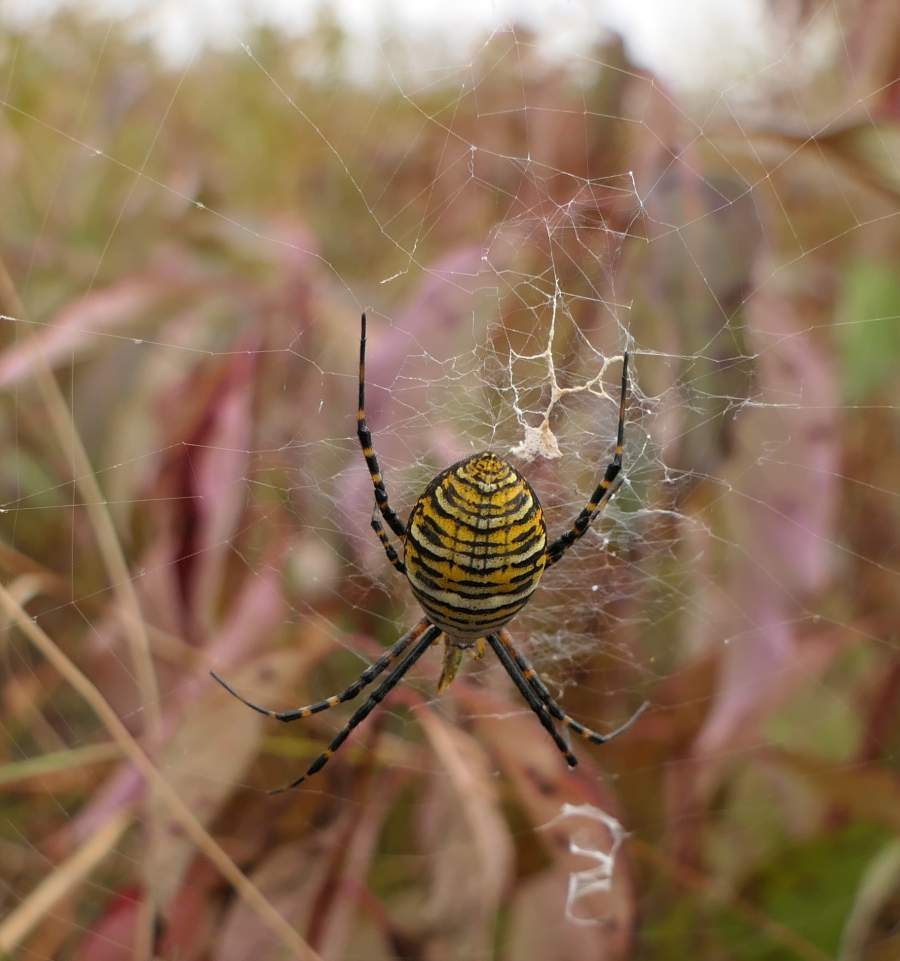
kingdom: Animalia
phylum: Arthropoda
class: Arachnida
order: Araneae
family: Araneidae
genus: Argiope
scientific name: Argiope trifasciata
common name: Banded garden spider
